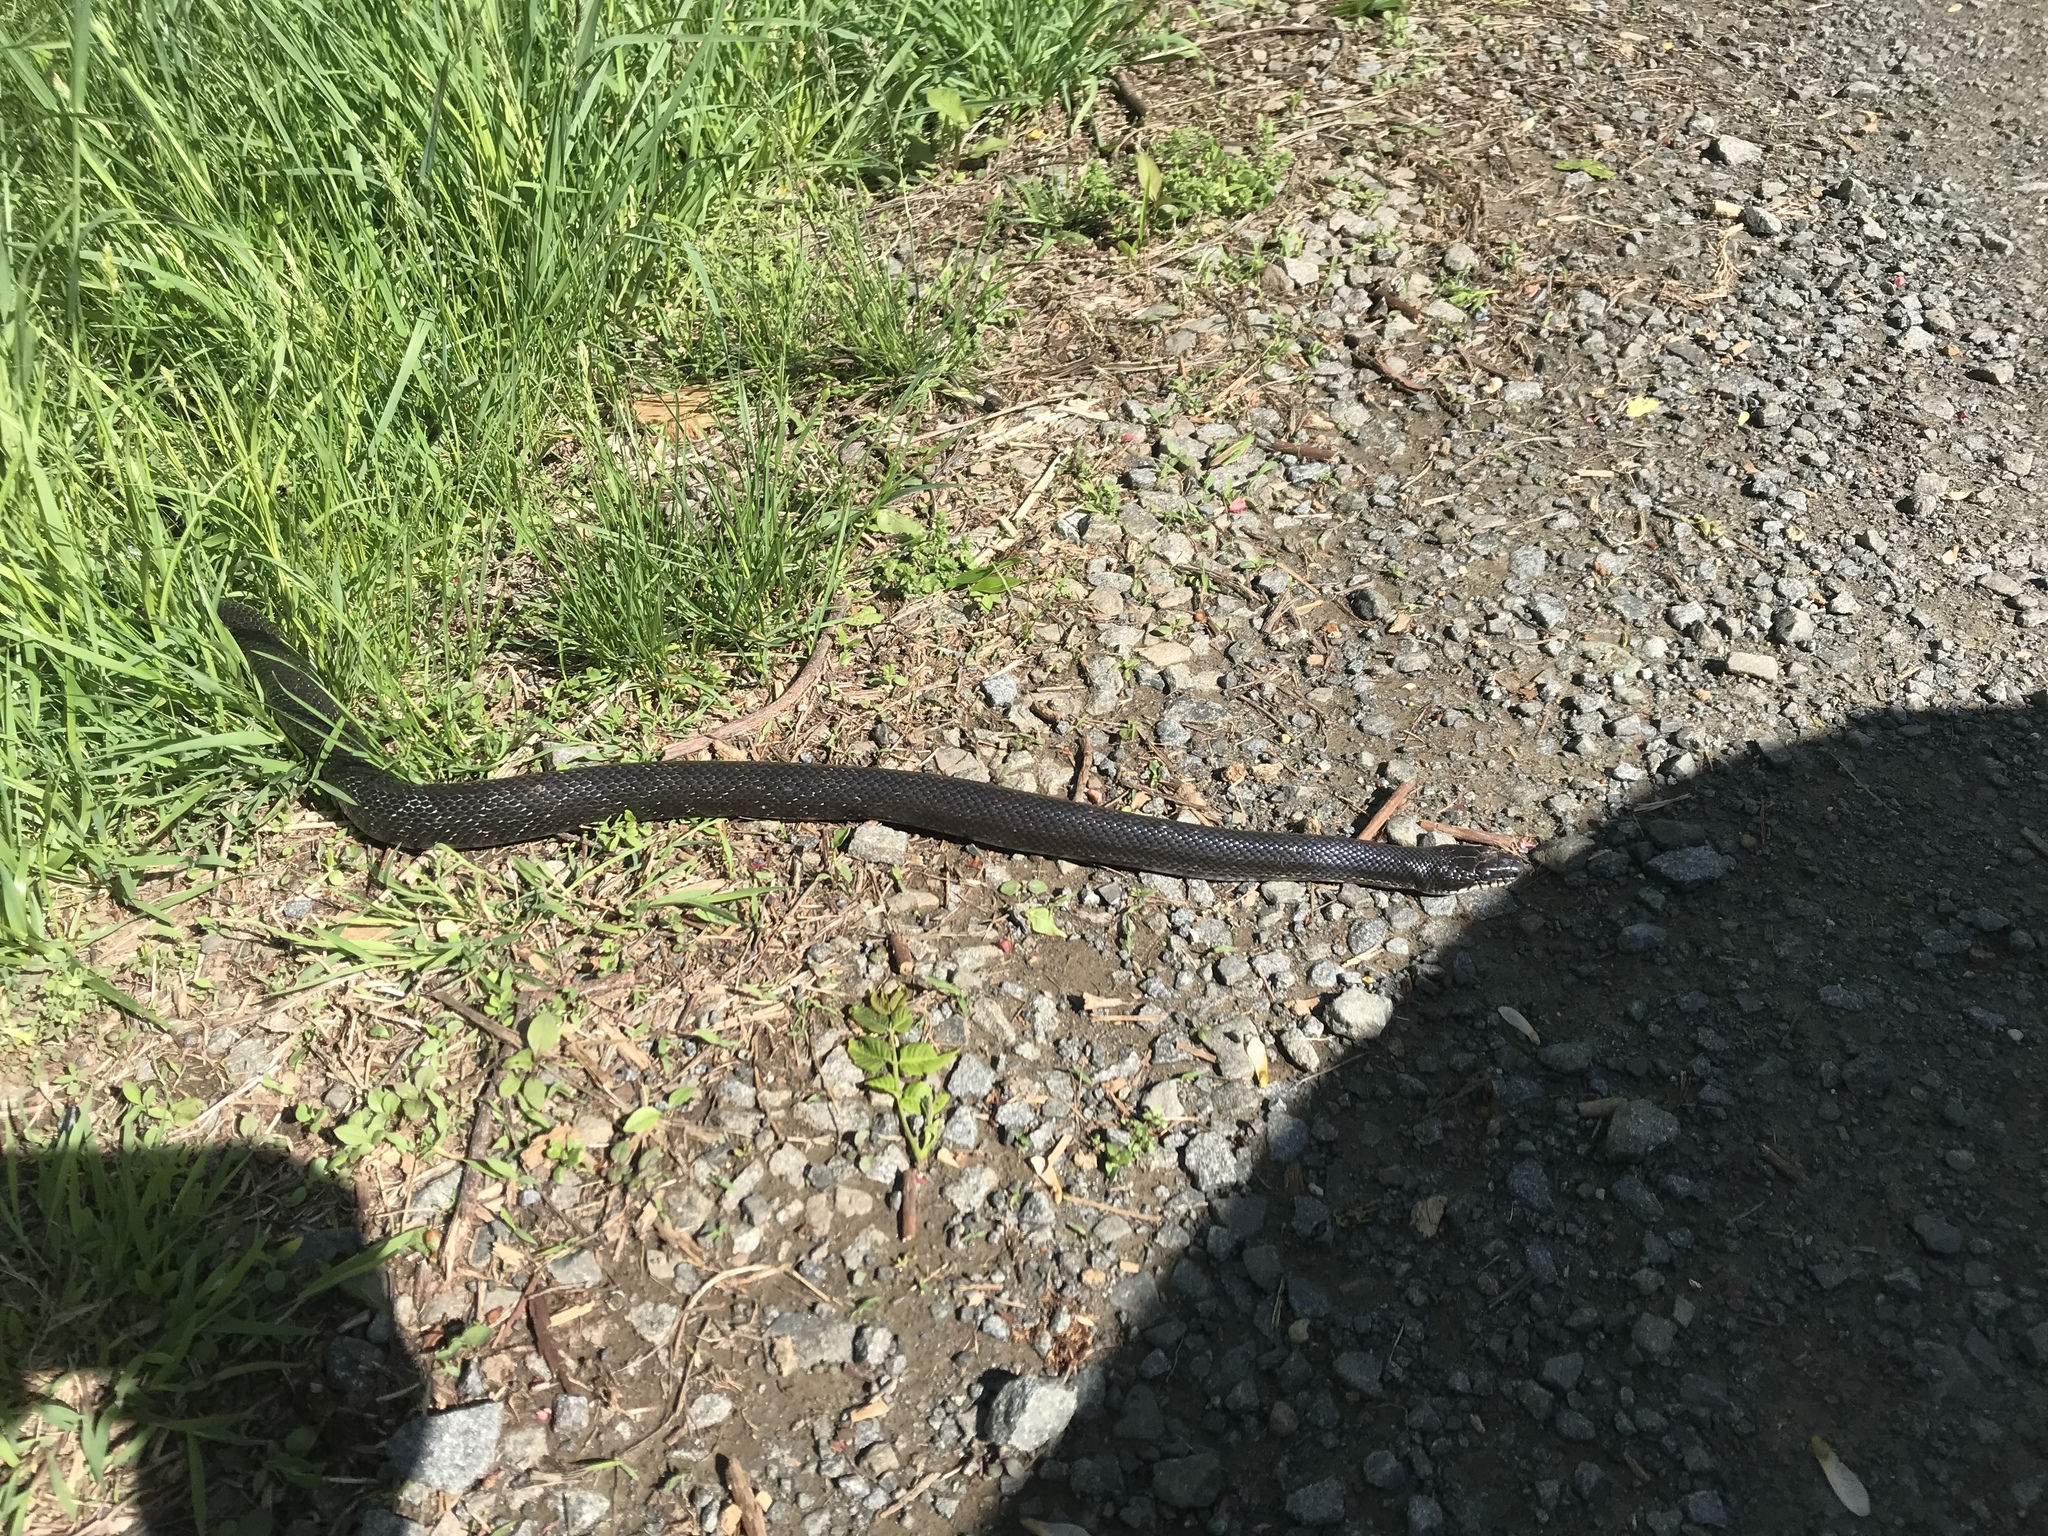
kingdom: Animalia
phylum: Chordata
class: Squamata
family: Colubridae
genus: Pantherophis
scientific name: Pantherophis alleghaniensis
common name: Eastern rat snake
